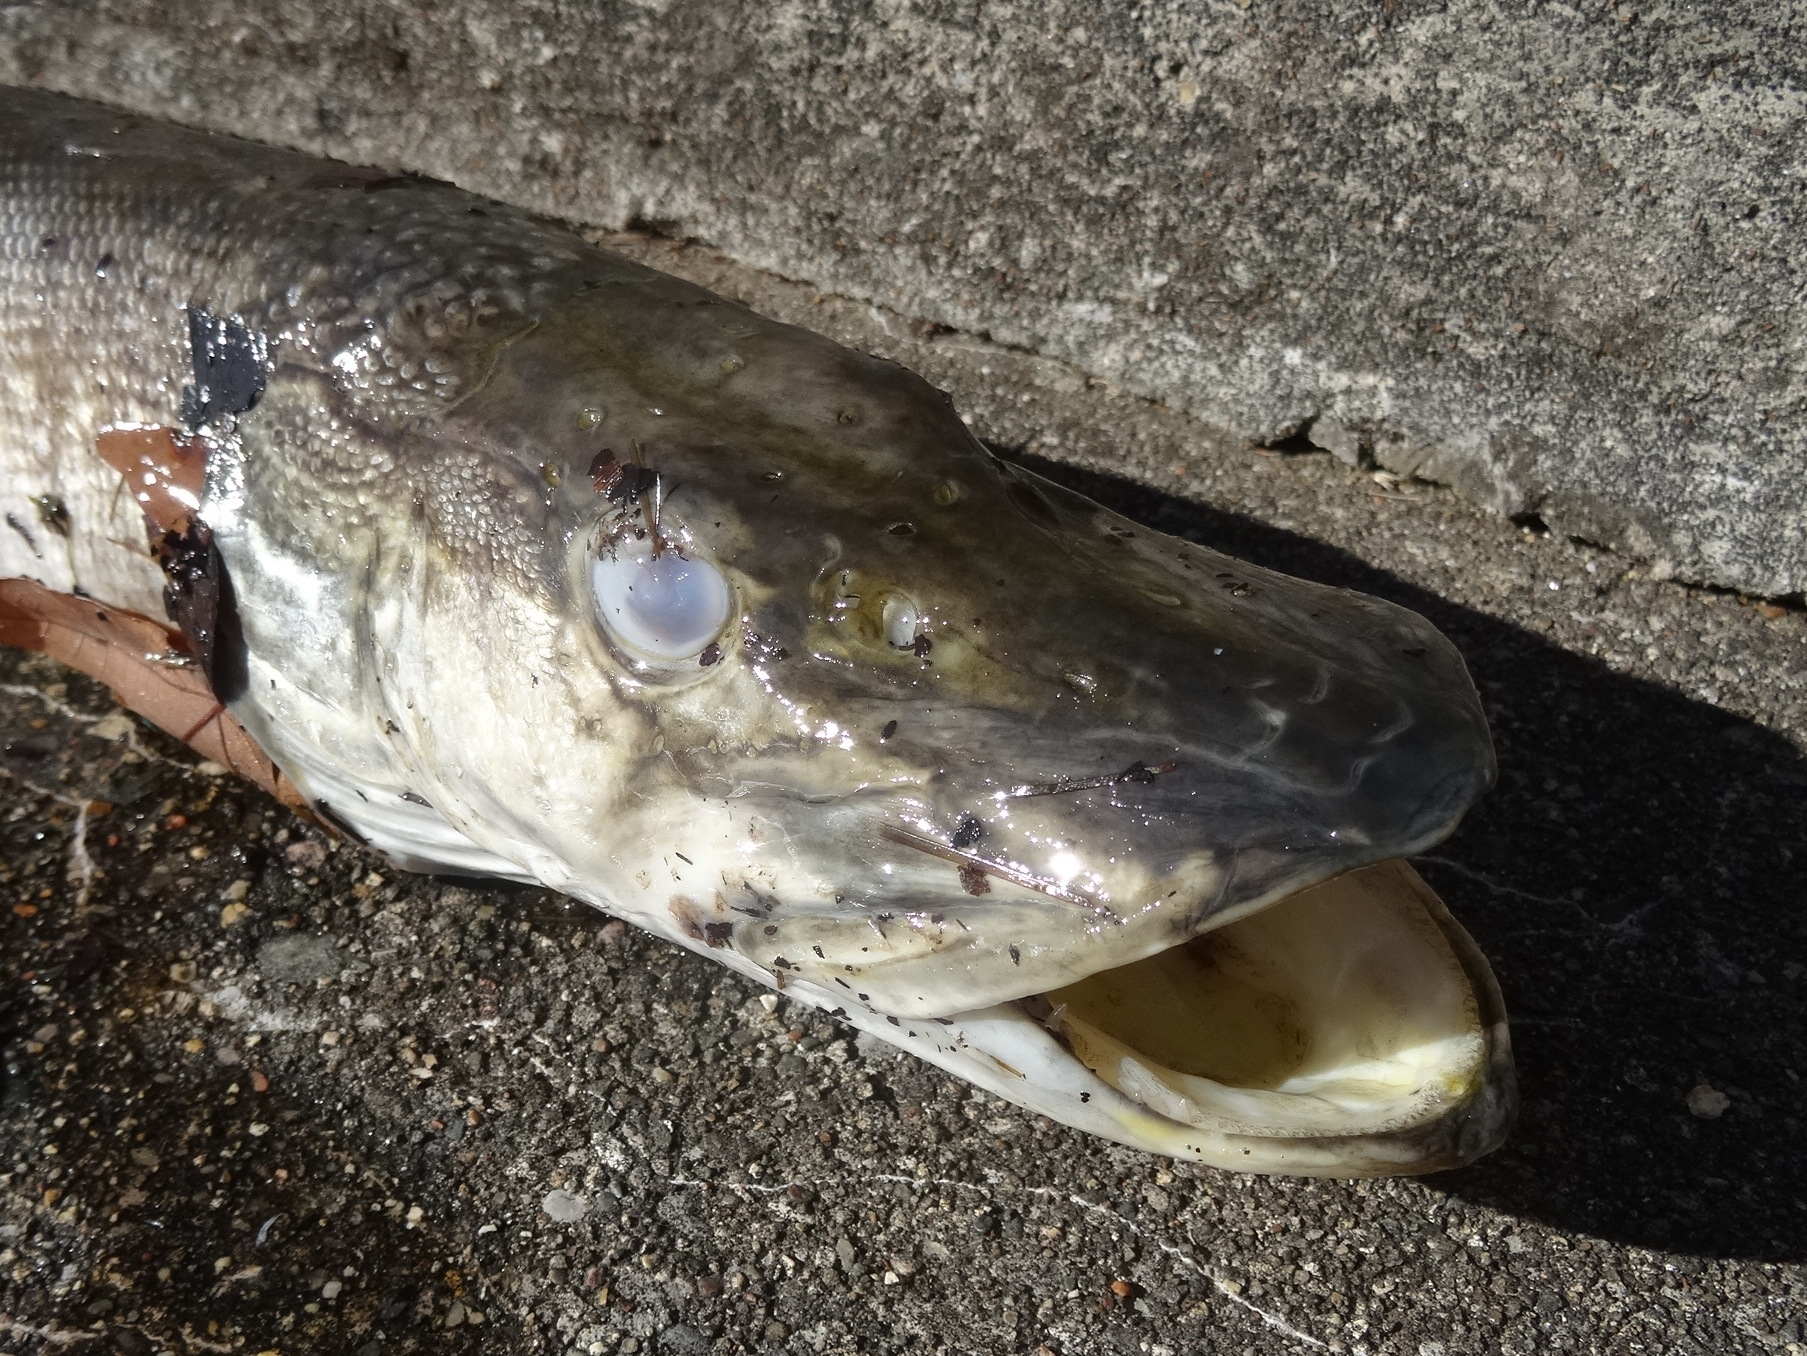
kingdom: Animalia
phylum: Chordata
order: Esociformes
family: Esocidae
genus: Esox
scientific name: Esox lucius
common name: Northern pike
